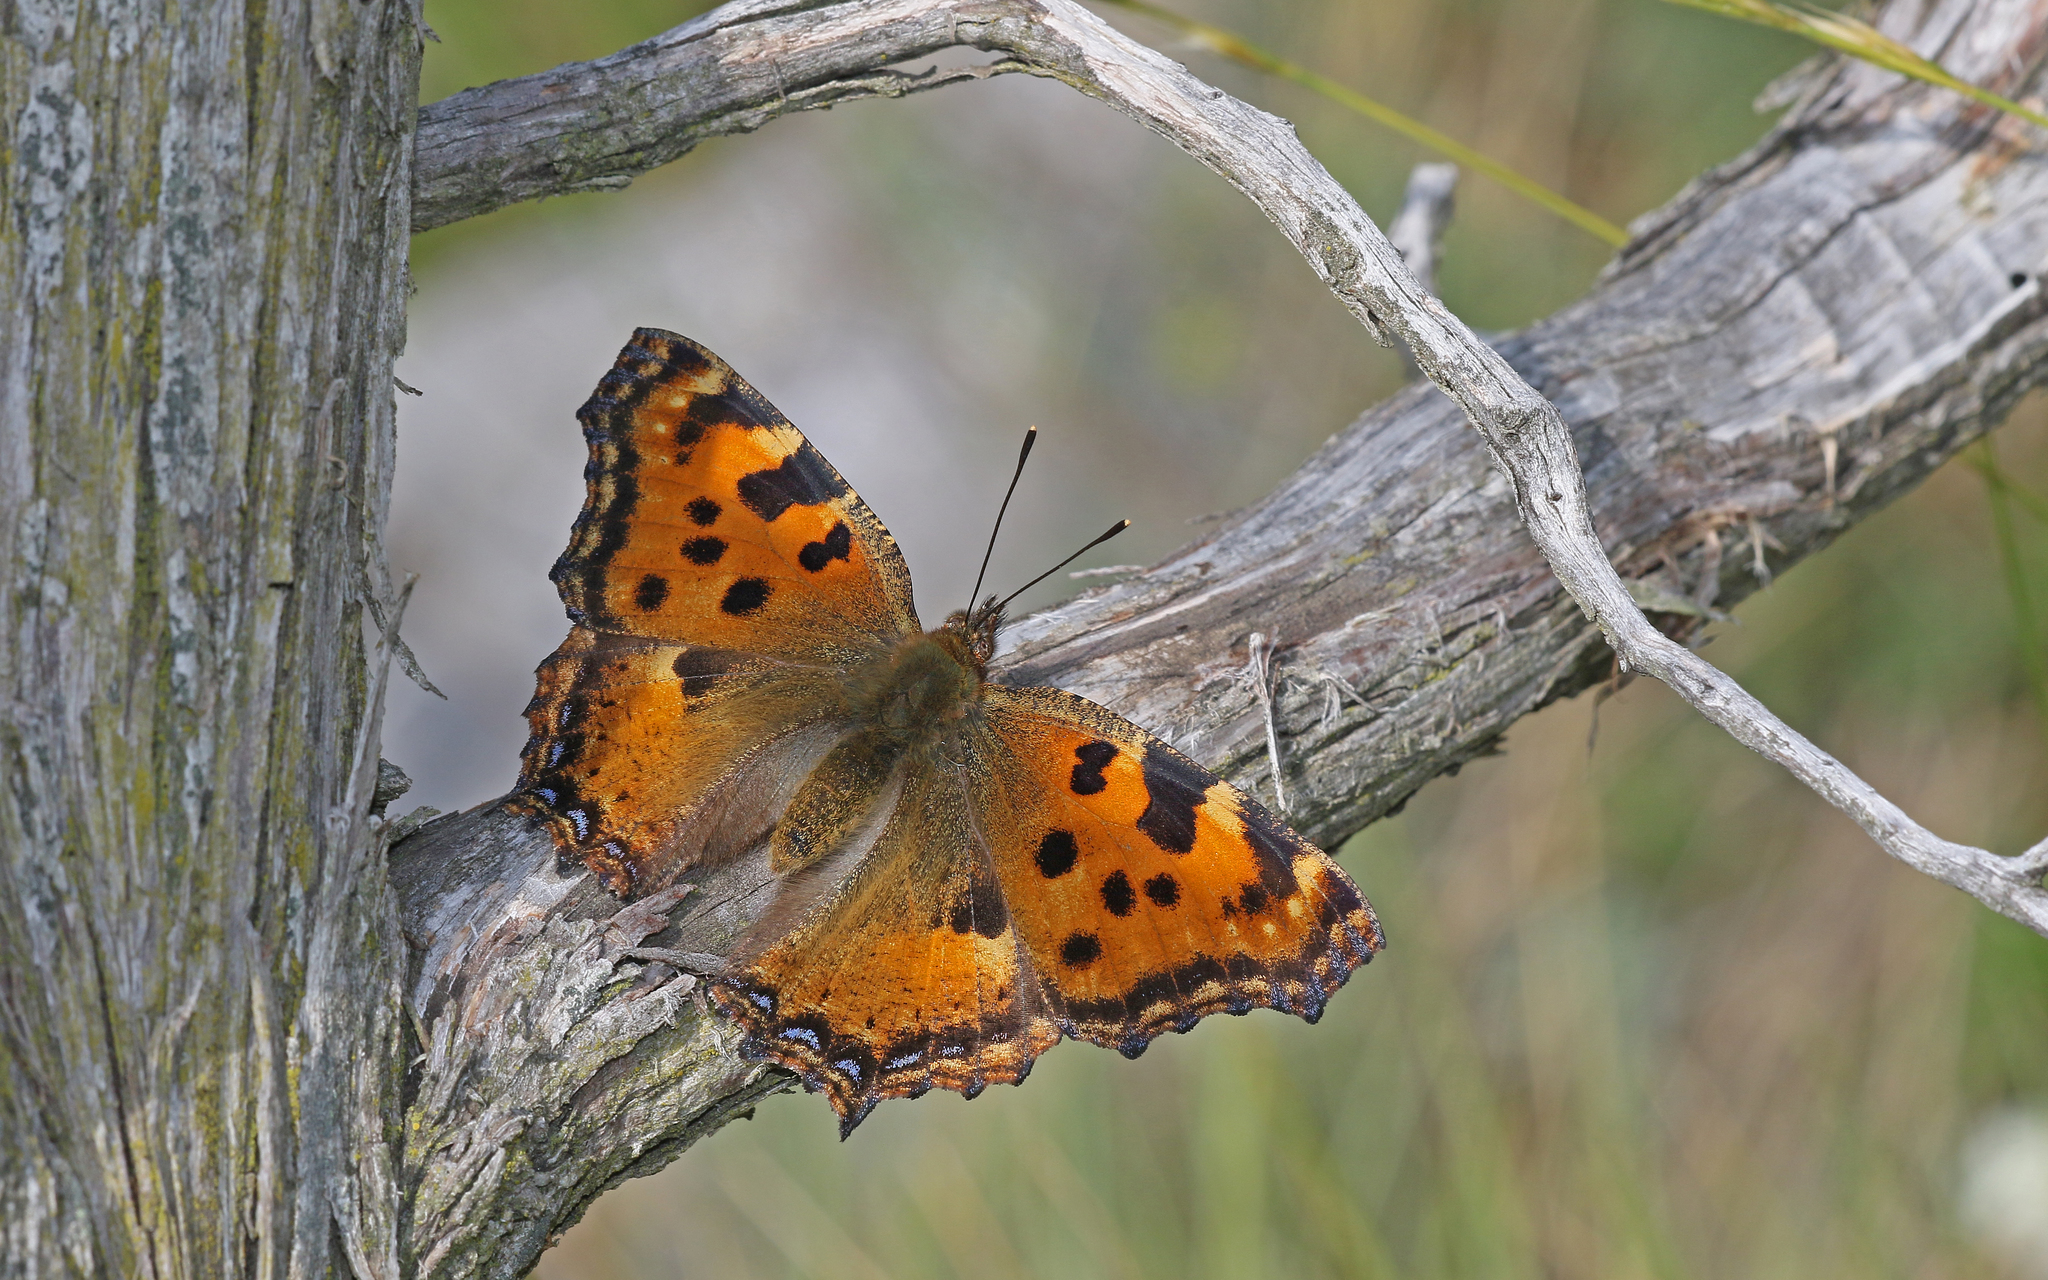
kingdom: Animalia
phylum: Arthropoda
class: Insecta
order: Lepidoptera
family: Nymphalidae
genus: Nymphalis
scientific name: Nymphalis polychloros
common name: Large tortoiseshell
